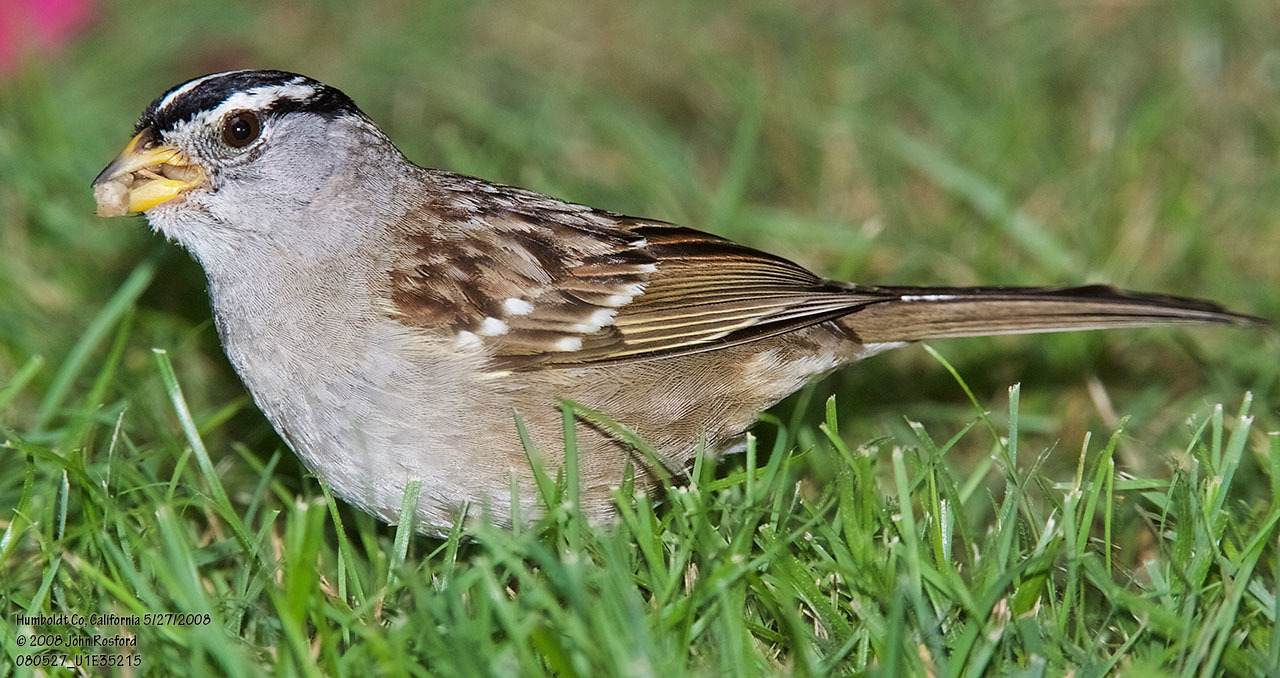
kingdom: Animalia
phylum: Chordata
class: Aves
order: Passeriformes
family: Passerellidae
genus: Zonotrichia
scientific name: Zonotrichia leucophrys
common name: White-crowned sparrow
